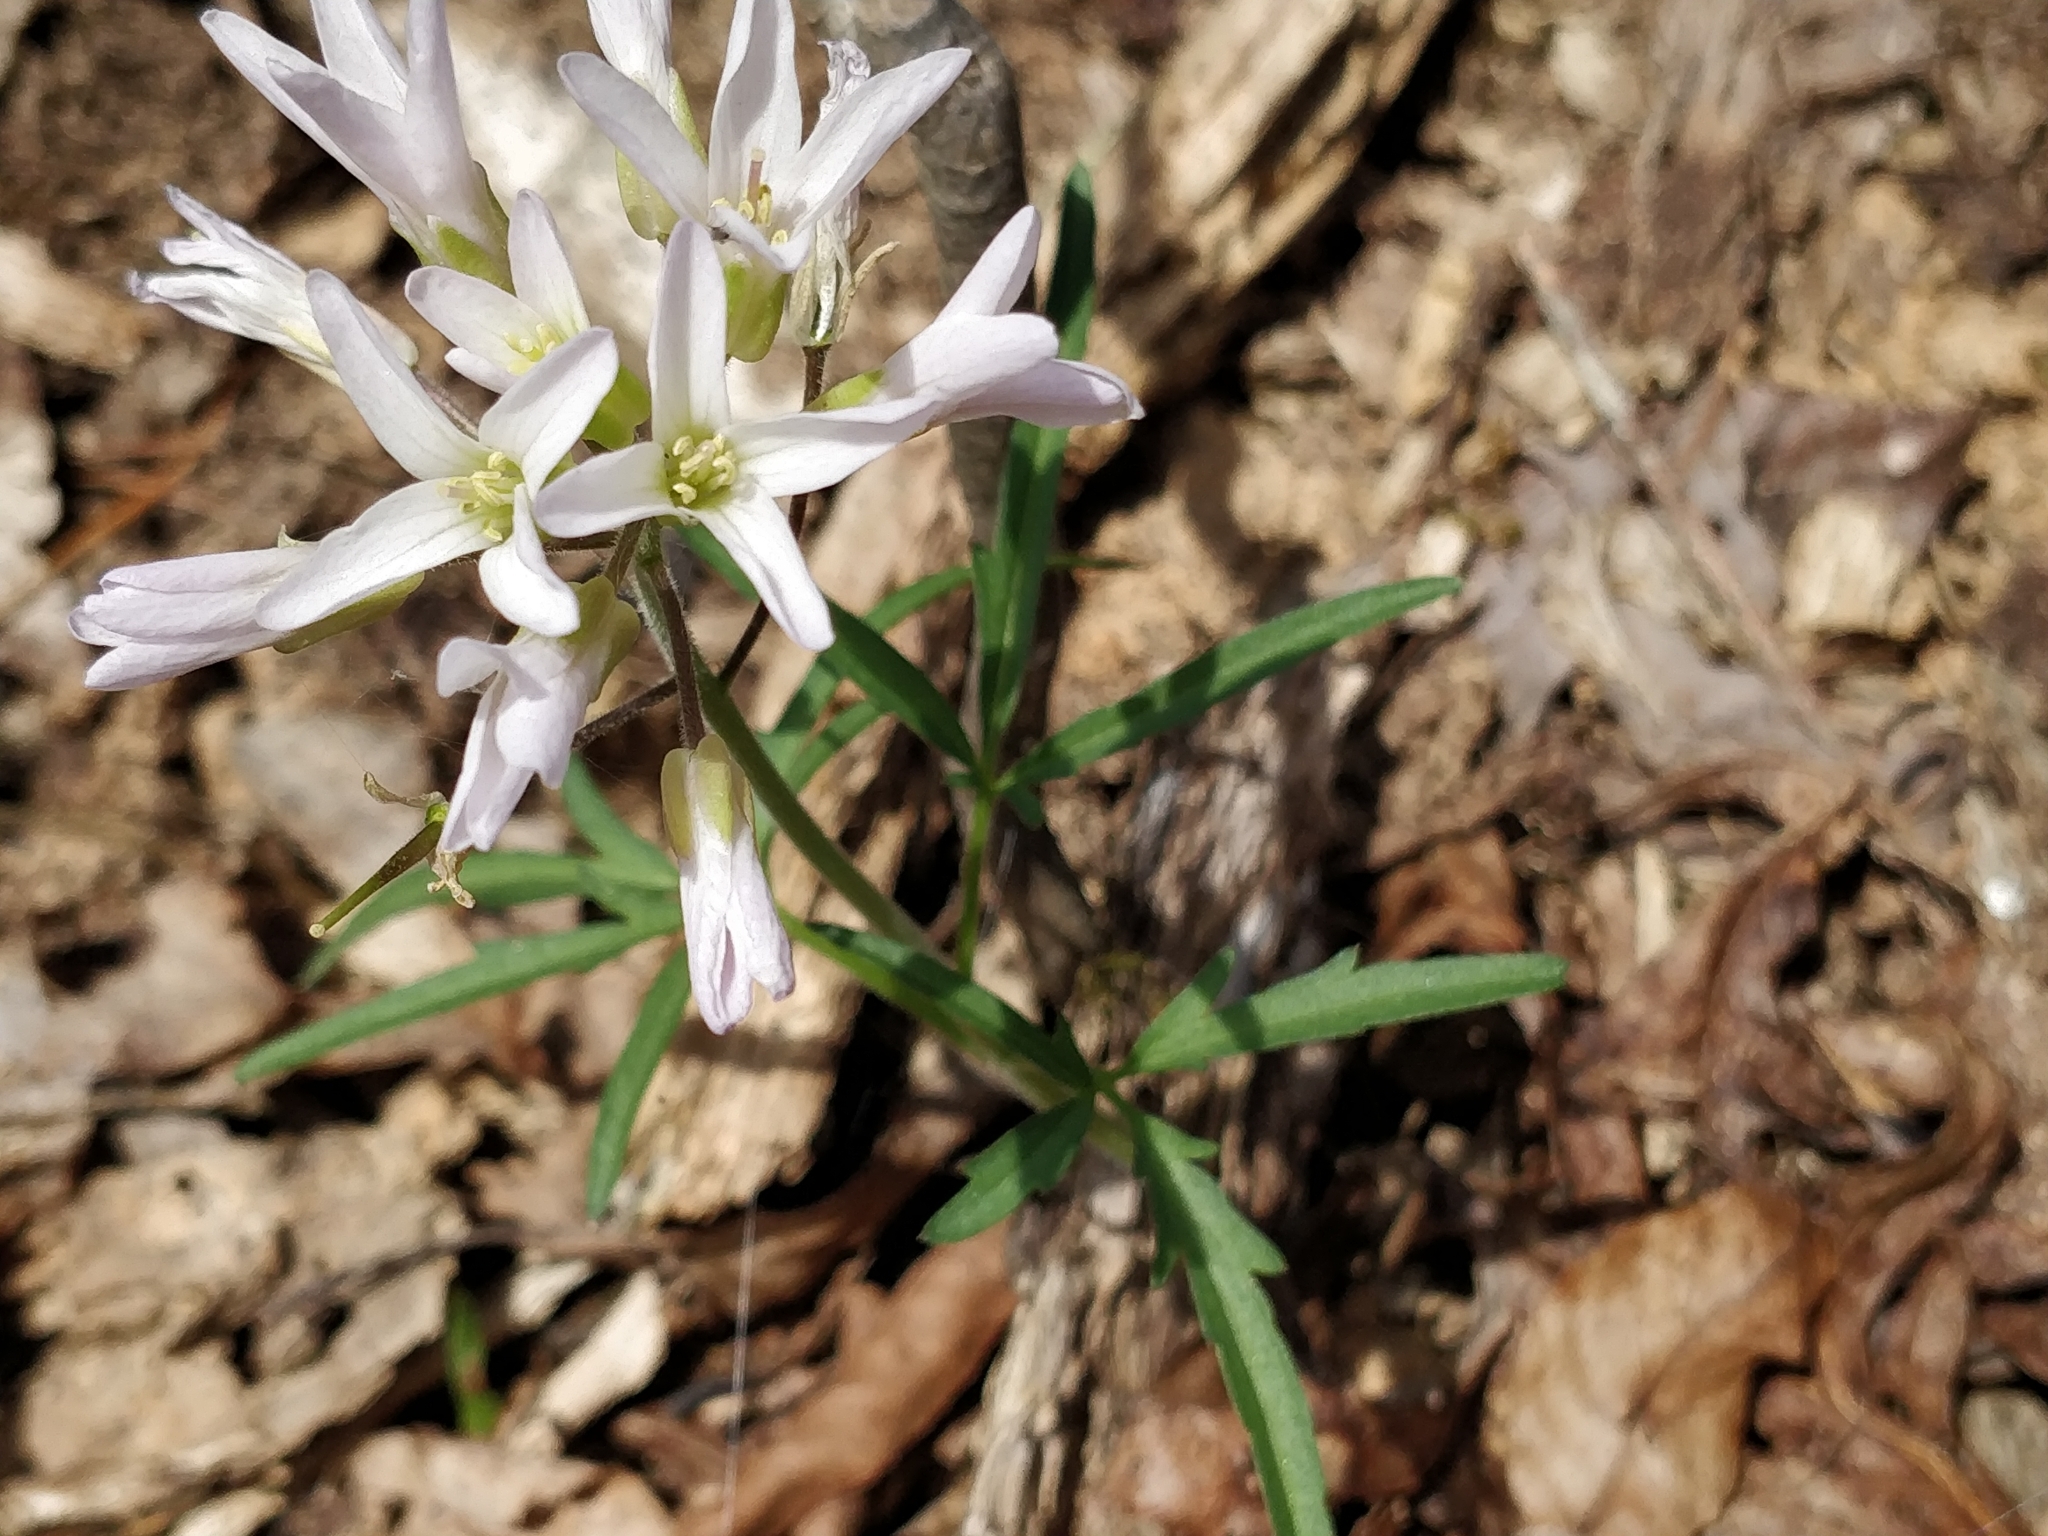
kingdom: Plantae
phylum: Tracheophyta
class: Magnoliopsida
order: Brassicales
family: Brassicaceae
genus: Cardamine
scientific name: Cardamine concatenata
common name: Cut-leaf toothcup
